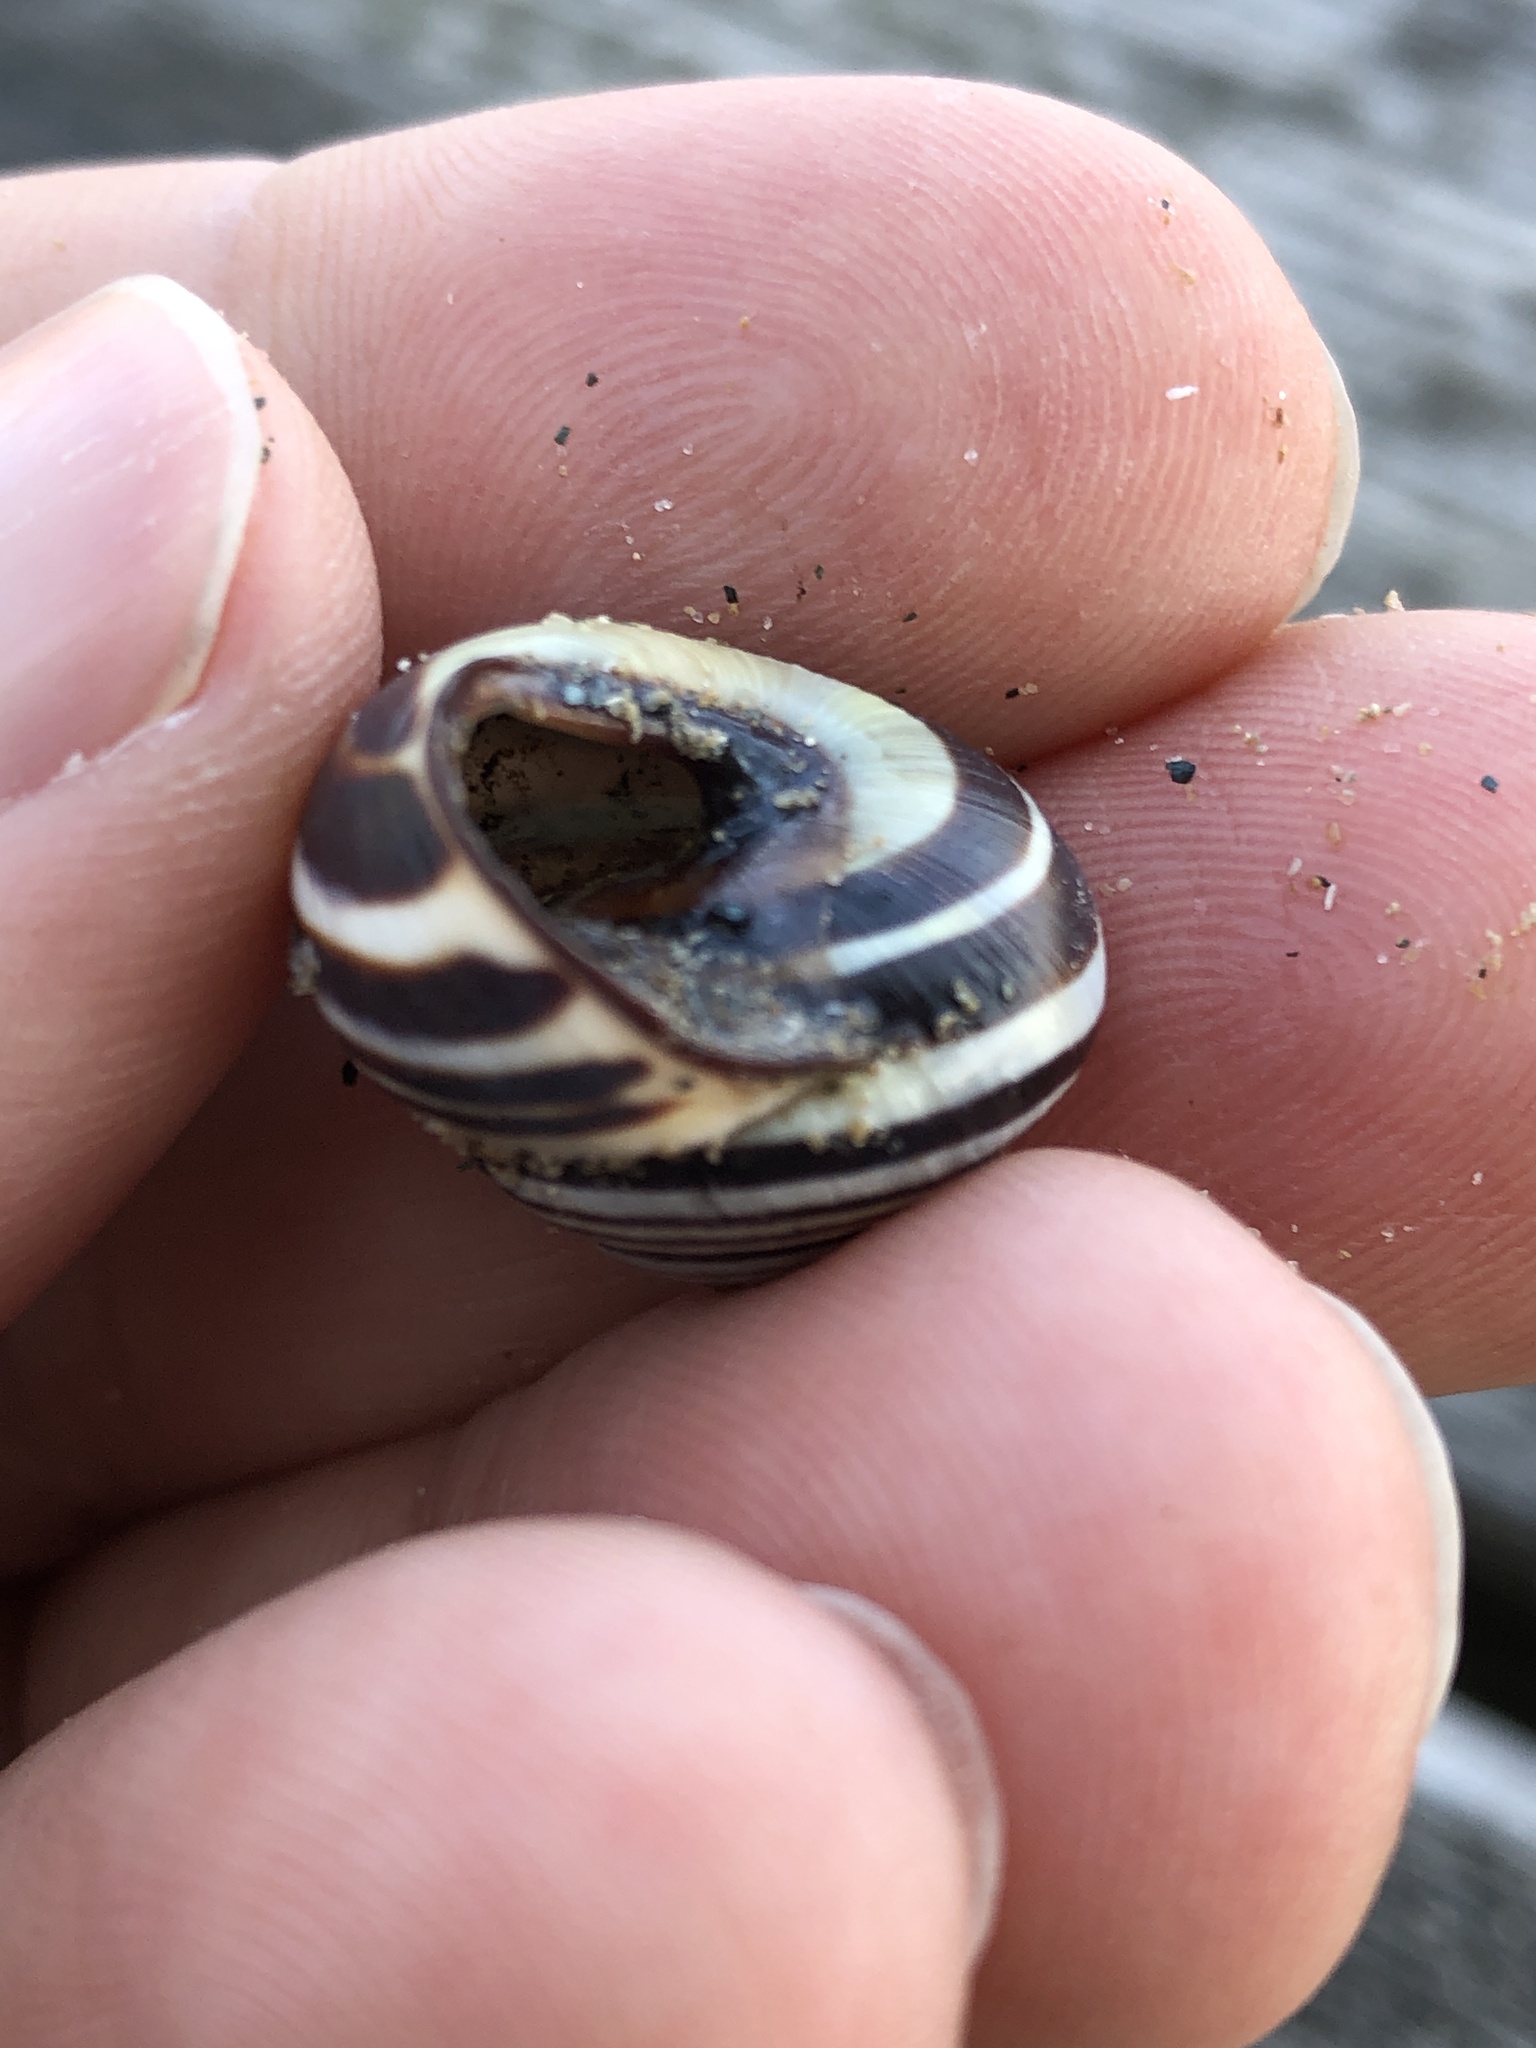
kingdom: Animalia
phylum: Mollusca
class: Gastropoda
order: Stylommatophora
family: Helicidae
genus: Cepaea
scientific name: Cepaea nemoralis
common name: Grovesnail
